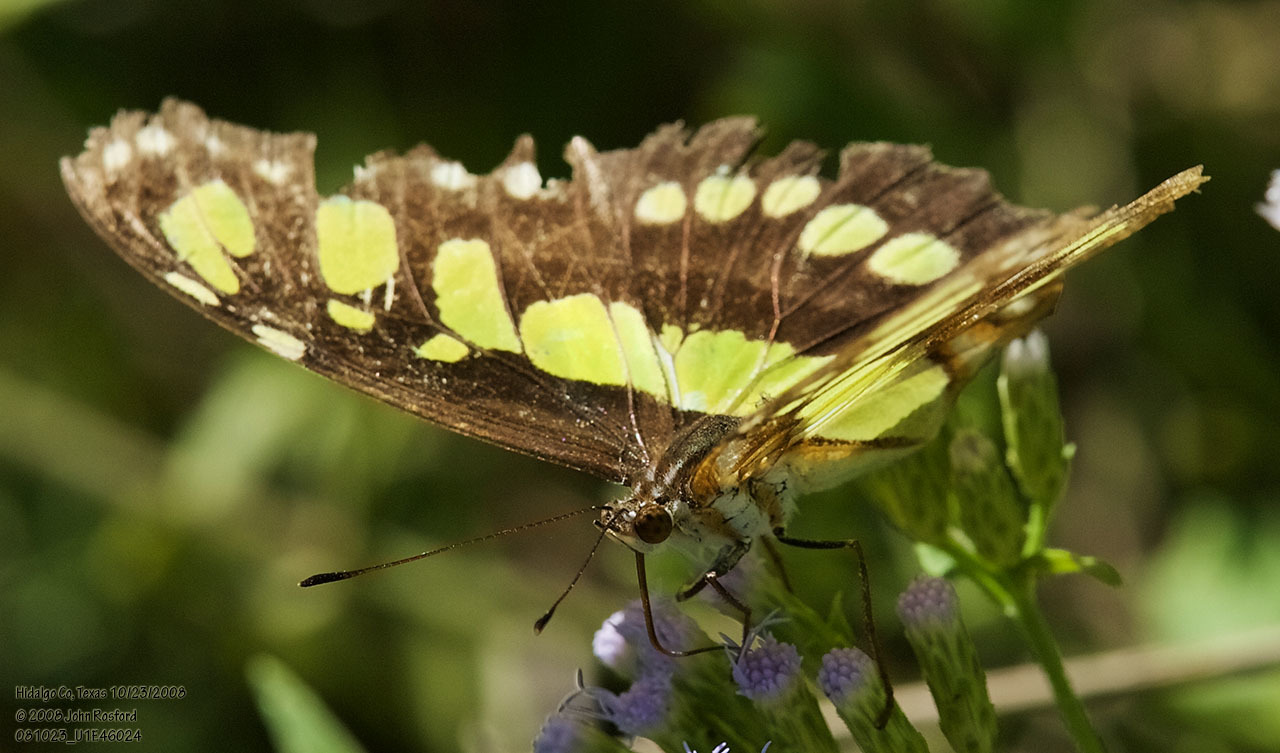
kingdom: Animalia
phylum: Arthropoda
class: Insecta
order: Lepidoptera
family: Nymphalidae
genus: Siproeta
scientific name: Siproeta stelenes
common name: Malachite
